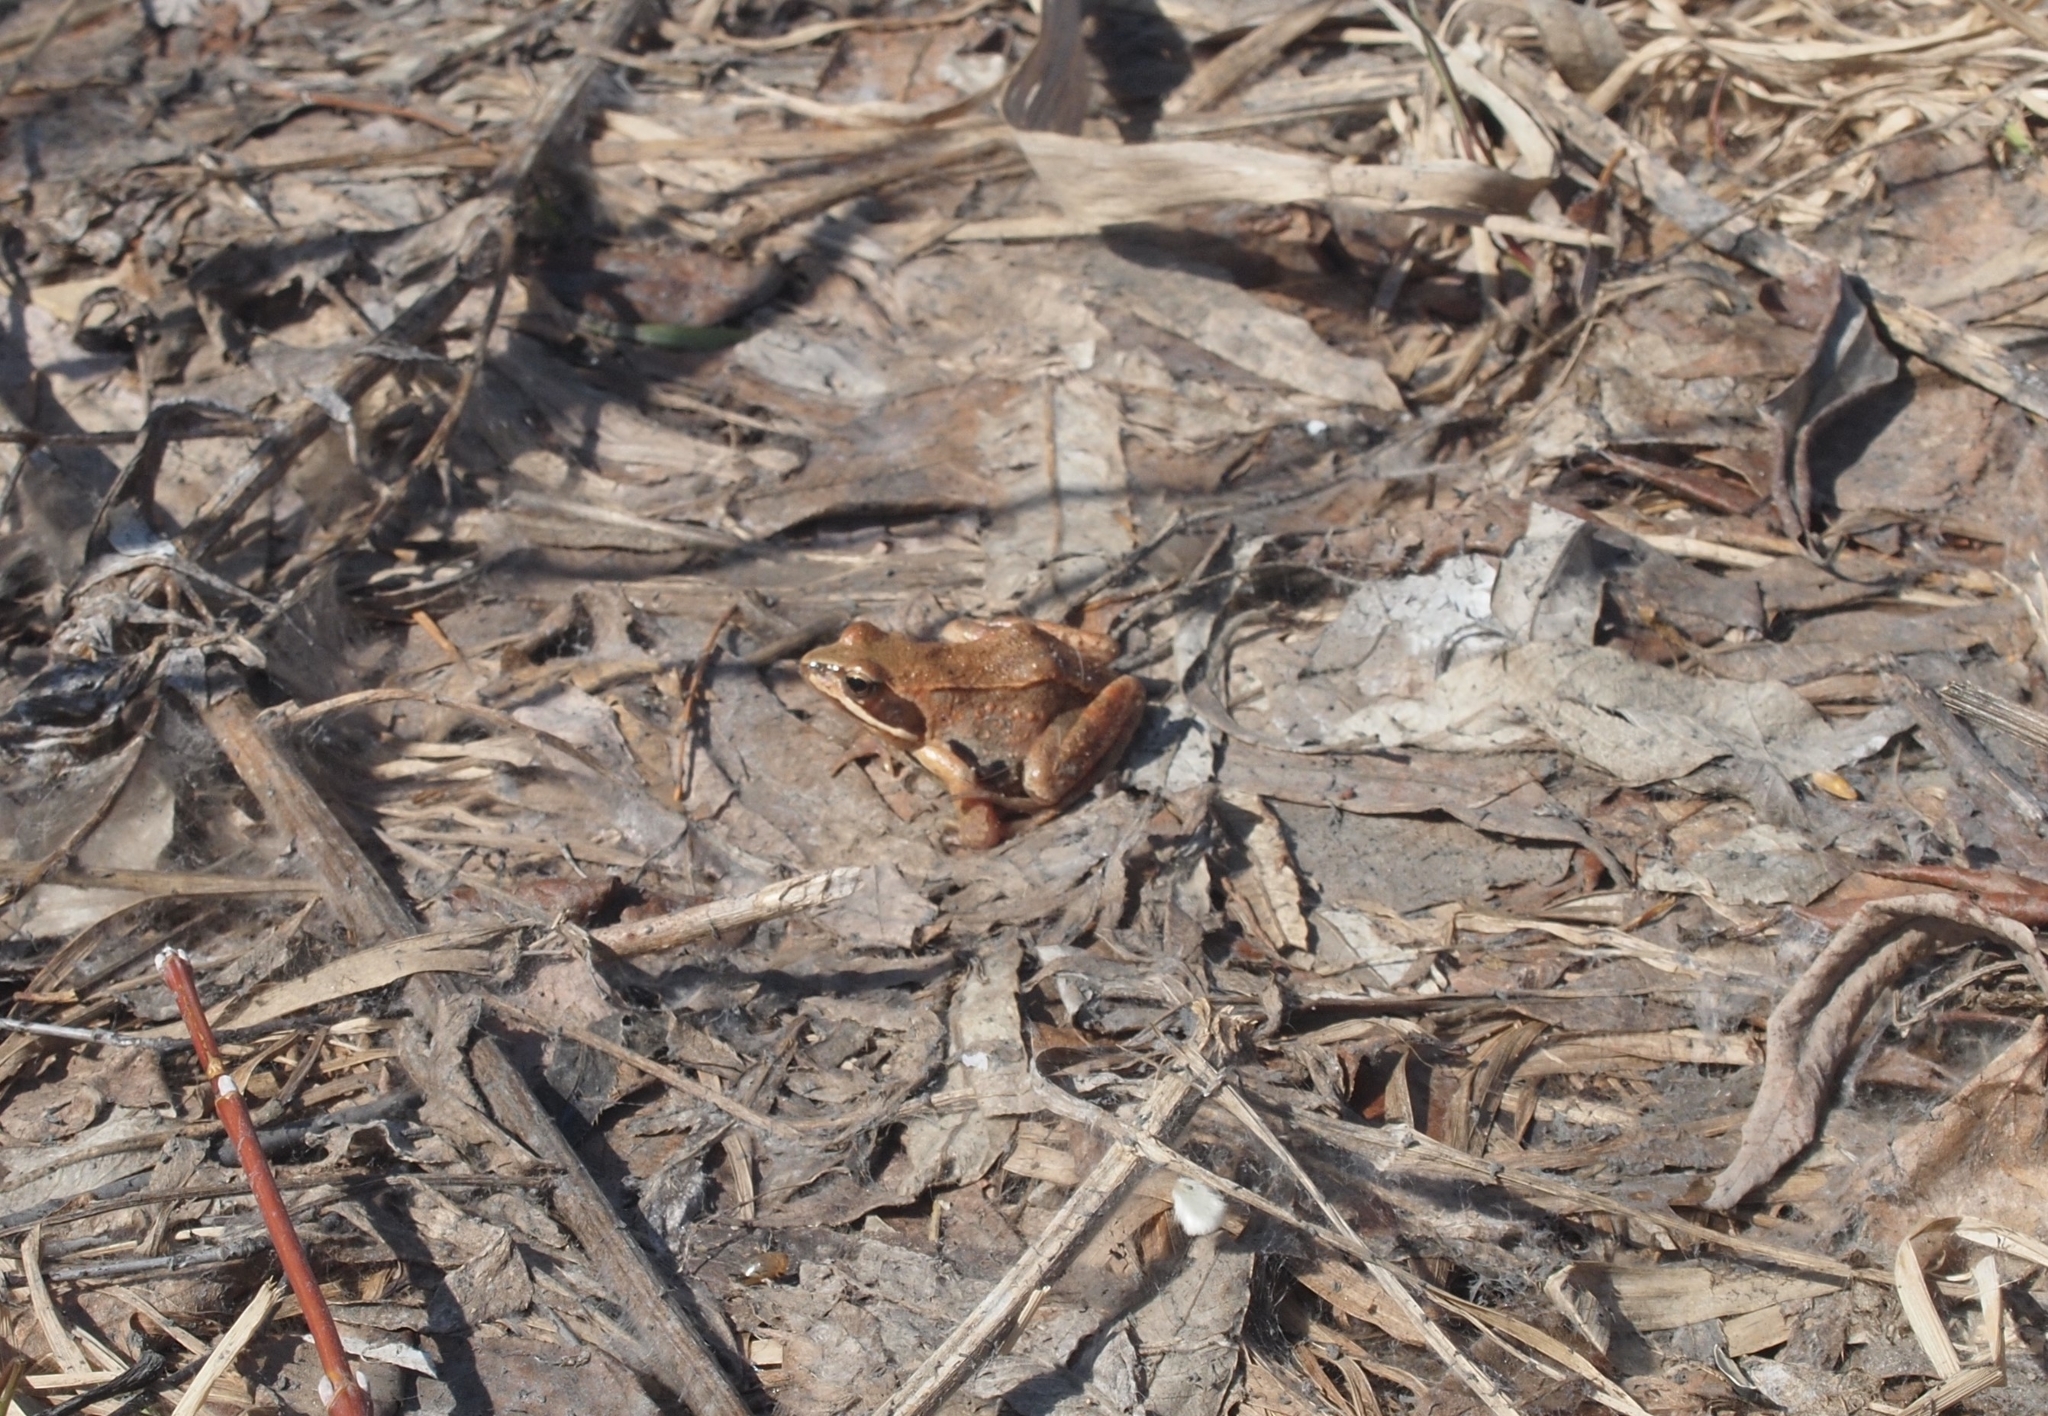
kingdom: Animalia
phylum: Chordata
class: Amphibia
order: Anura
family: Ranidae
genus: Rana
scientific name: Rana arvalis
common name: Moor frog
